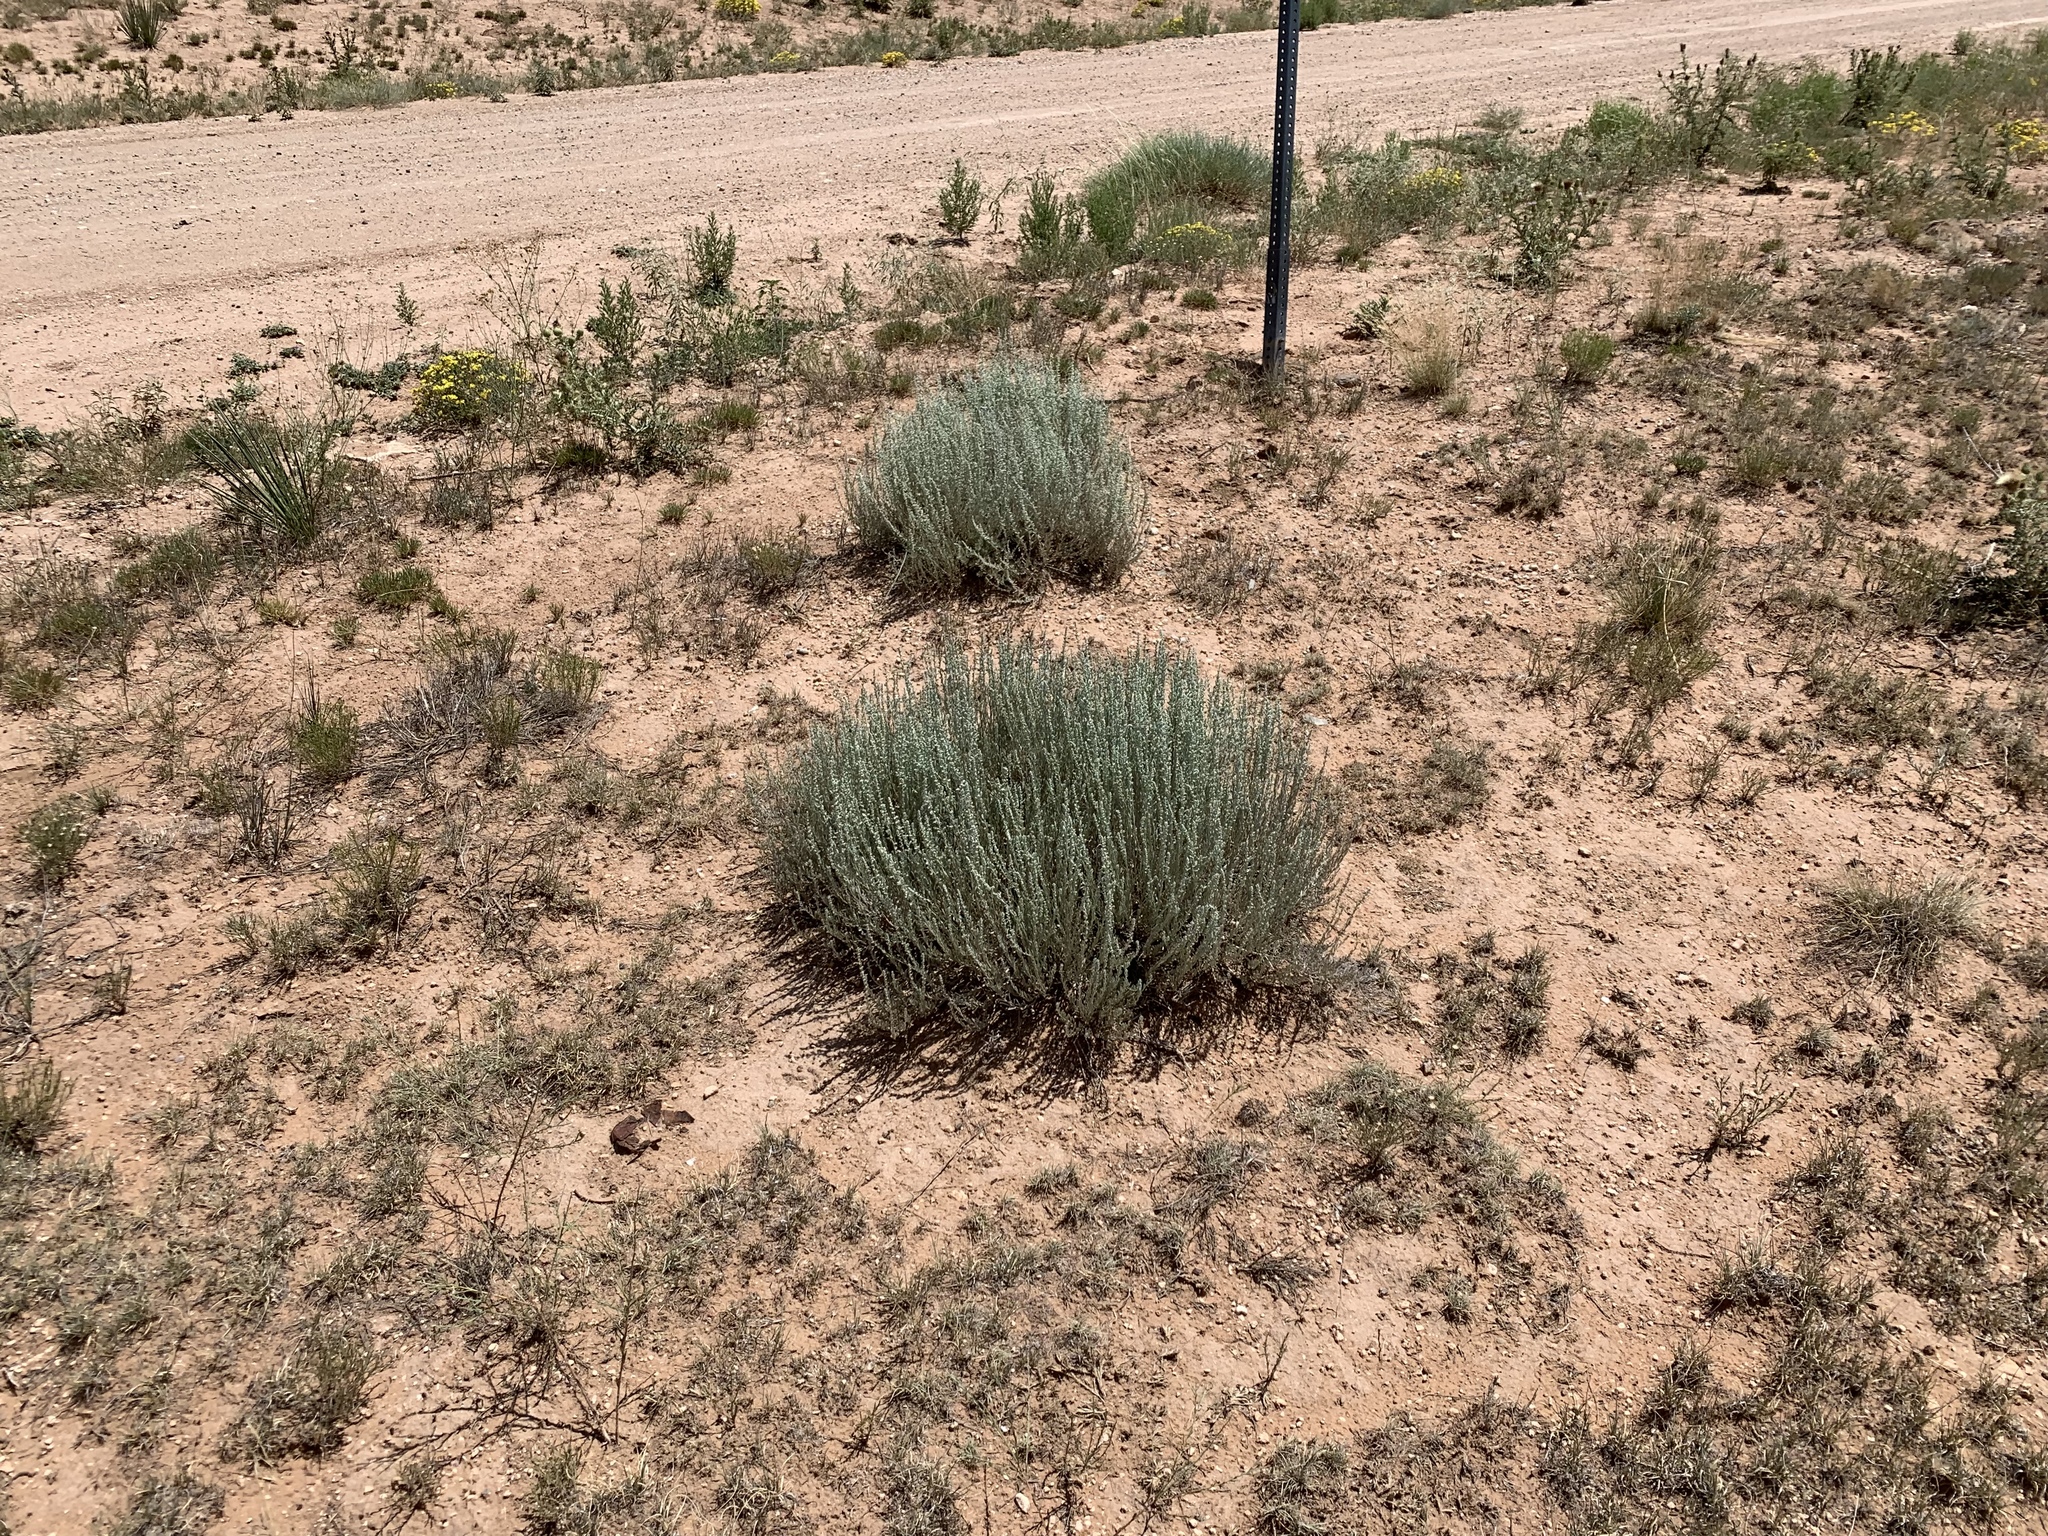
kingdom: Plantae
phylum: Tracheophyta
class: Magnoliopsida
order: Asterales
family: Asteraceae
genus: Artemisia
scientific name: Artemisia filifolia
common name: Sand-sage
